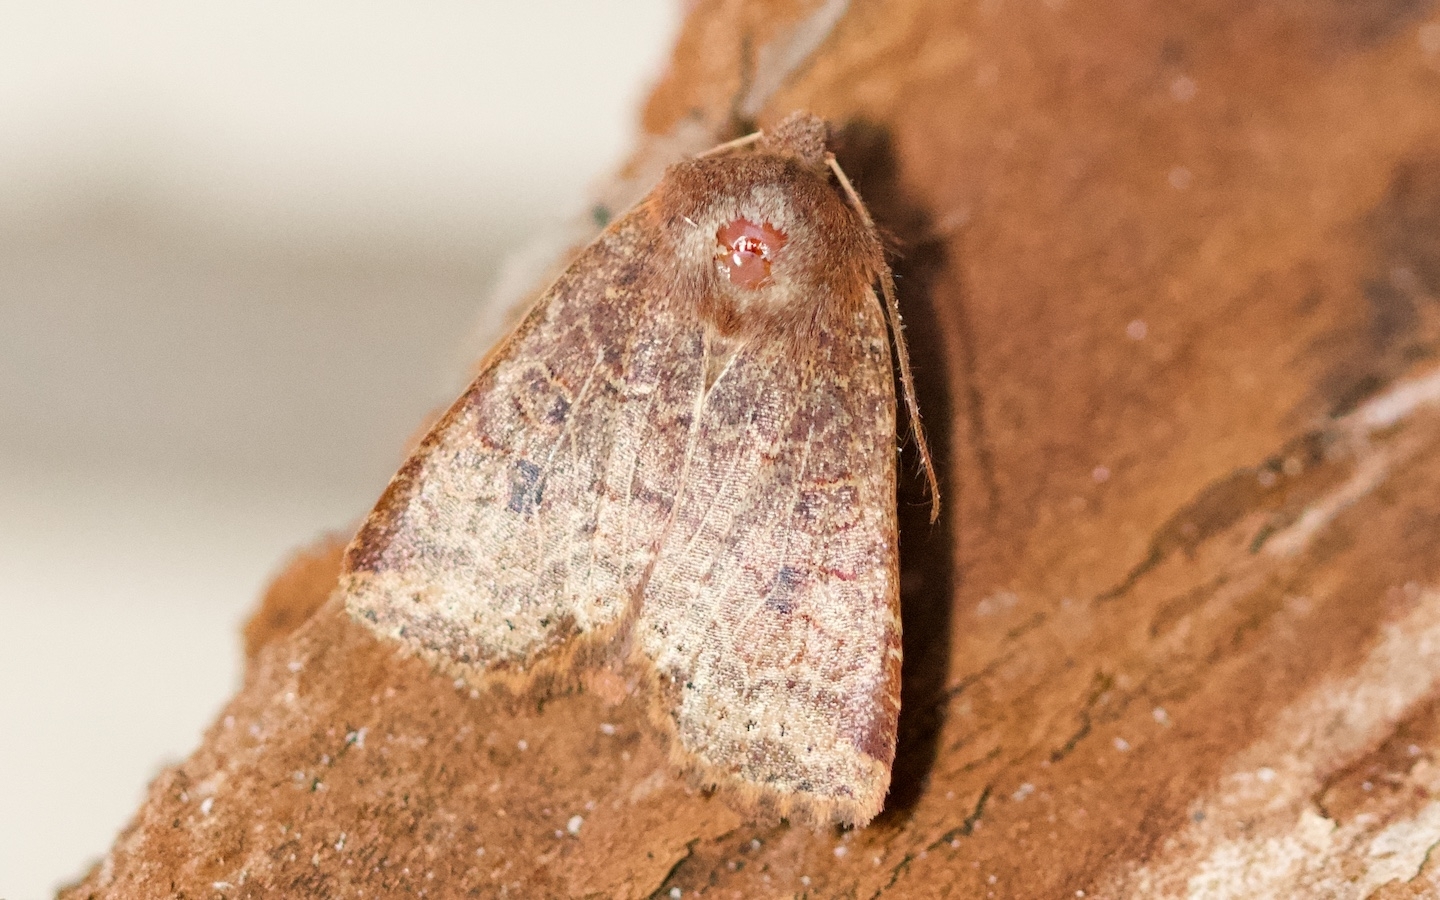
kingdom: Animalia
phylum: Arthropoda
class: Insecta
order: Lepidoptera
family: Noctuidae
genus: Conistra
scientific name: Conistra vaccinii
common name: Chestnut
